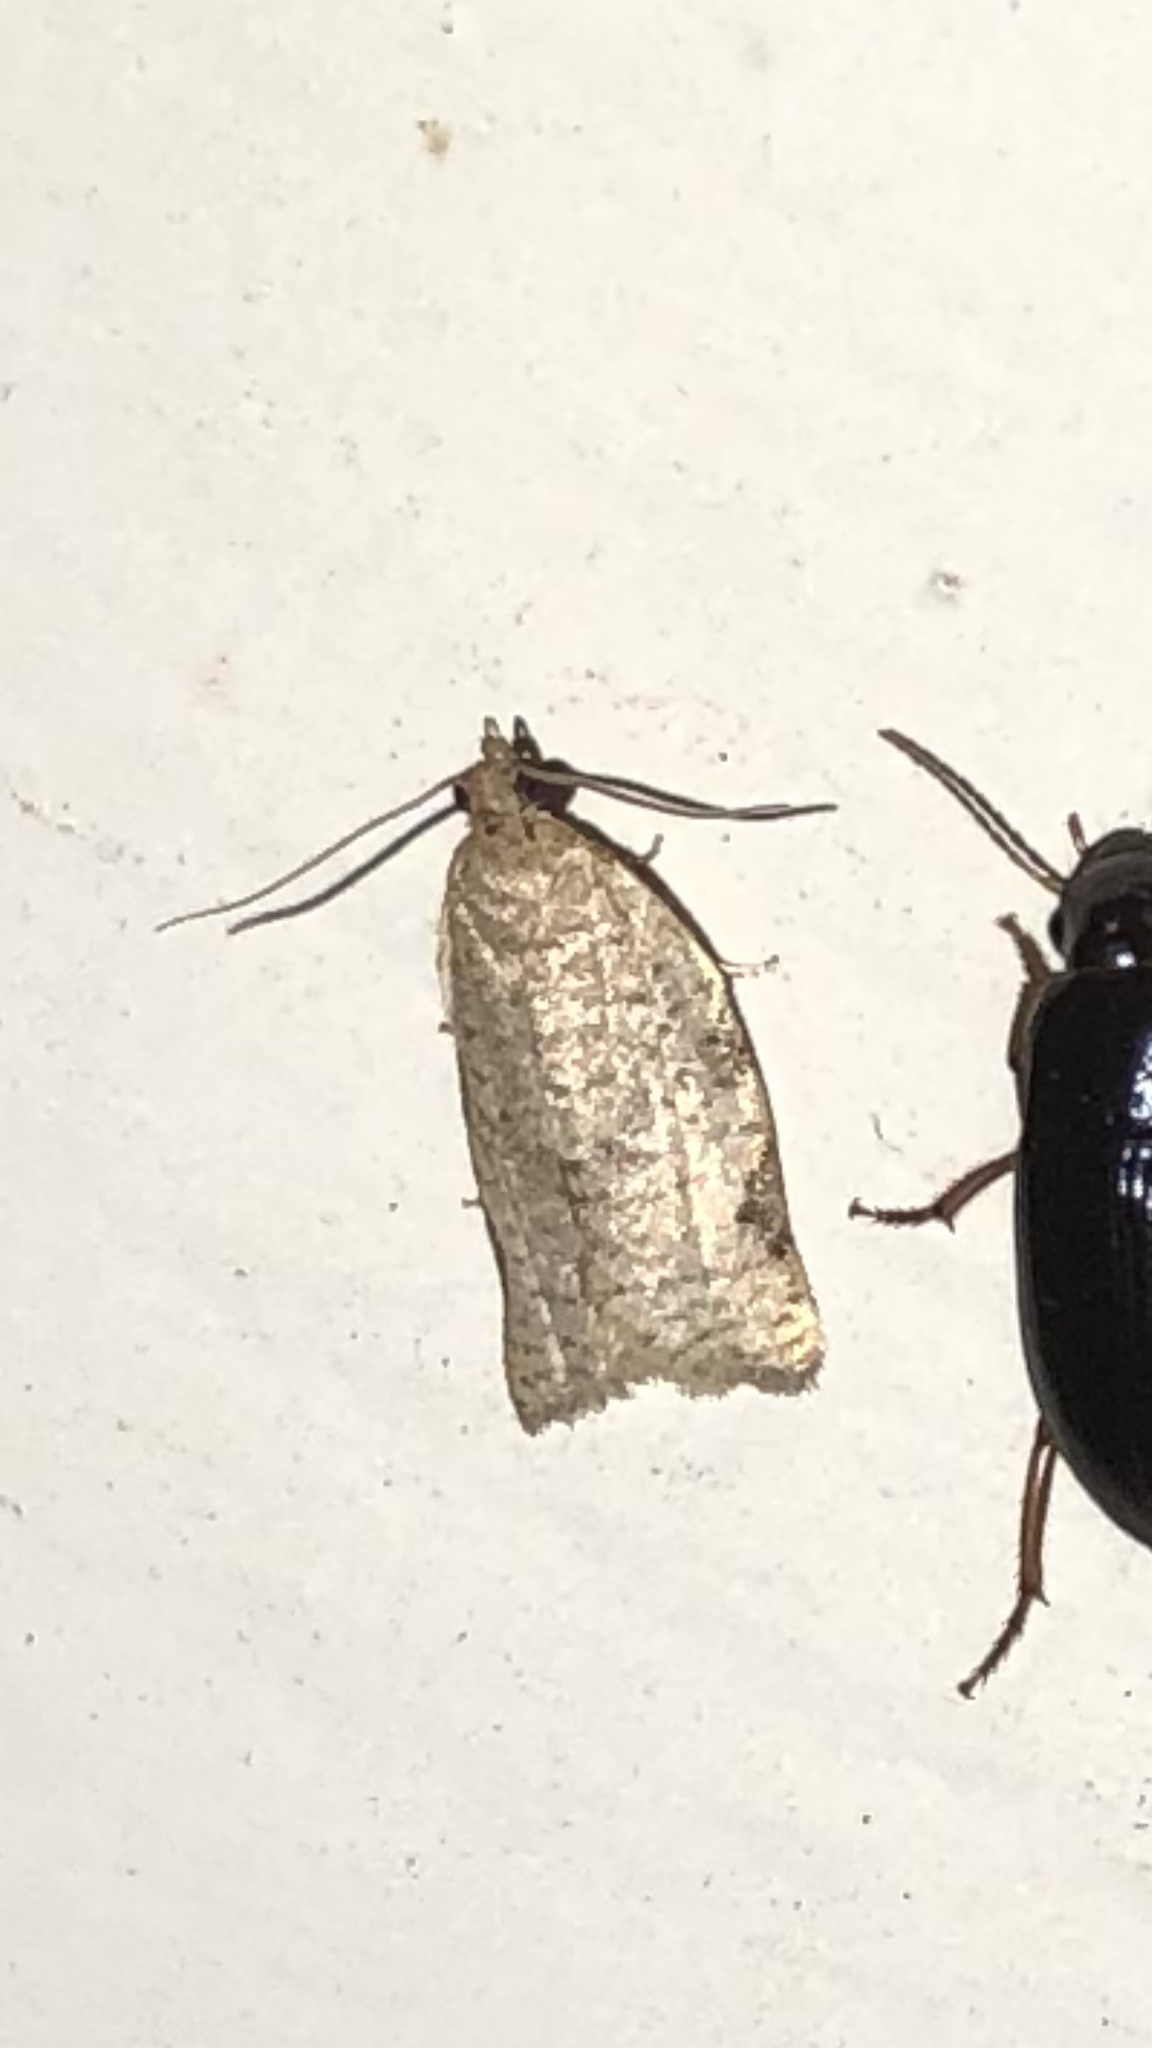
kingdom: Animalia
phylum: Arthropoda
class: Insecta
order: Lepidoptera
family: Tortricidae
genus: Clepsis
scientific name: Clepsis virescana
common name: Greenish apple moth
